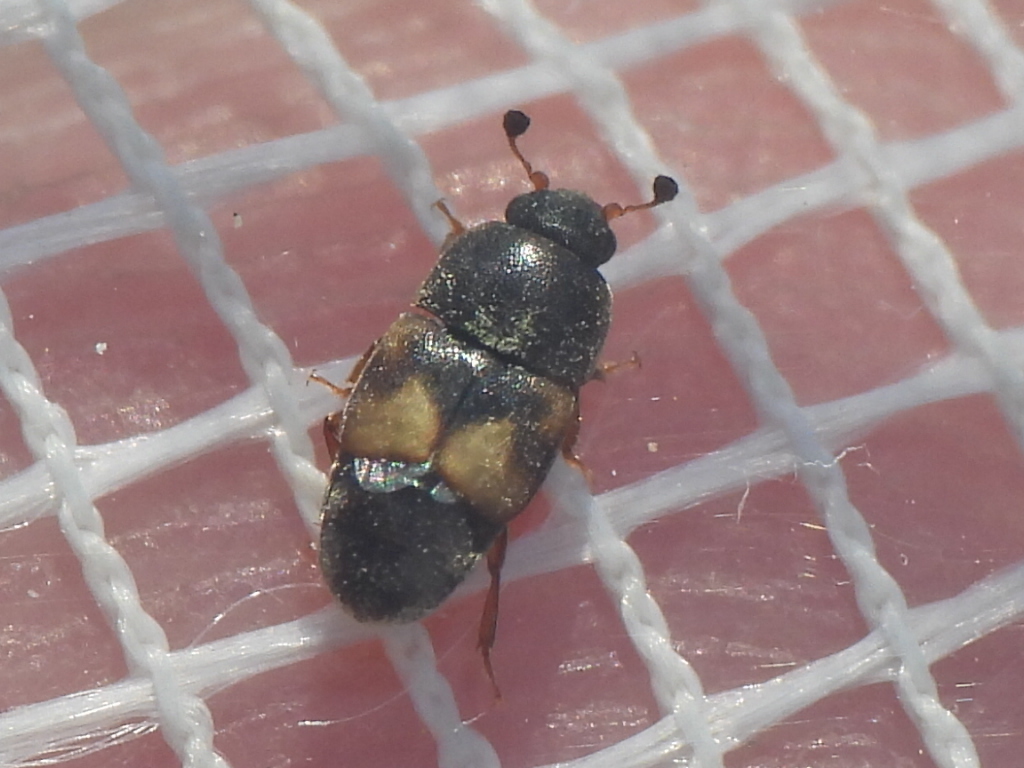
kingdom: Animalia
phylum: Arthropoda
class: Insecta
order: Coleoptera
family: Nitidulidae
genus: Carpophilus
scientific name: Carpophilus hemipterus
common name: Dried fruit beetle
